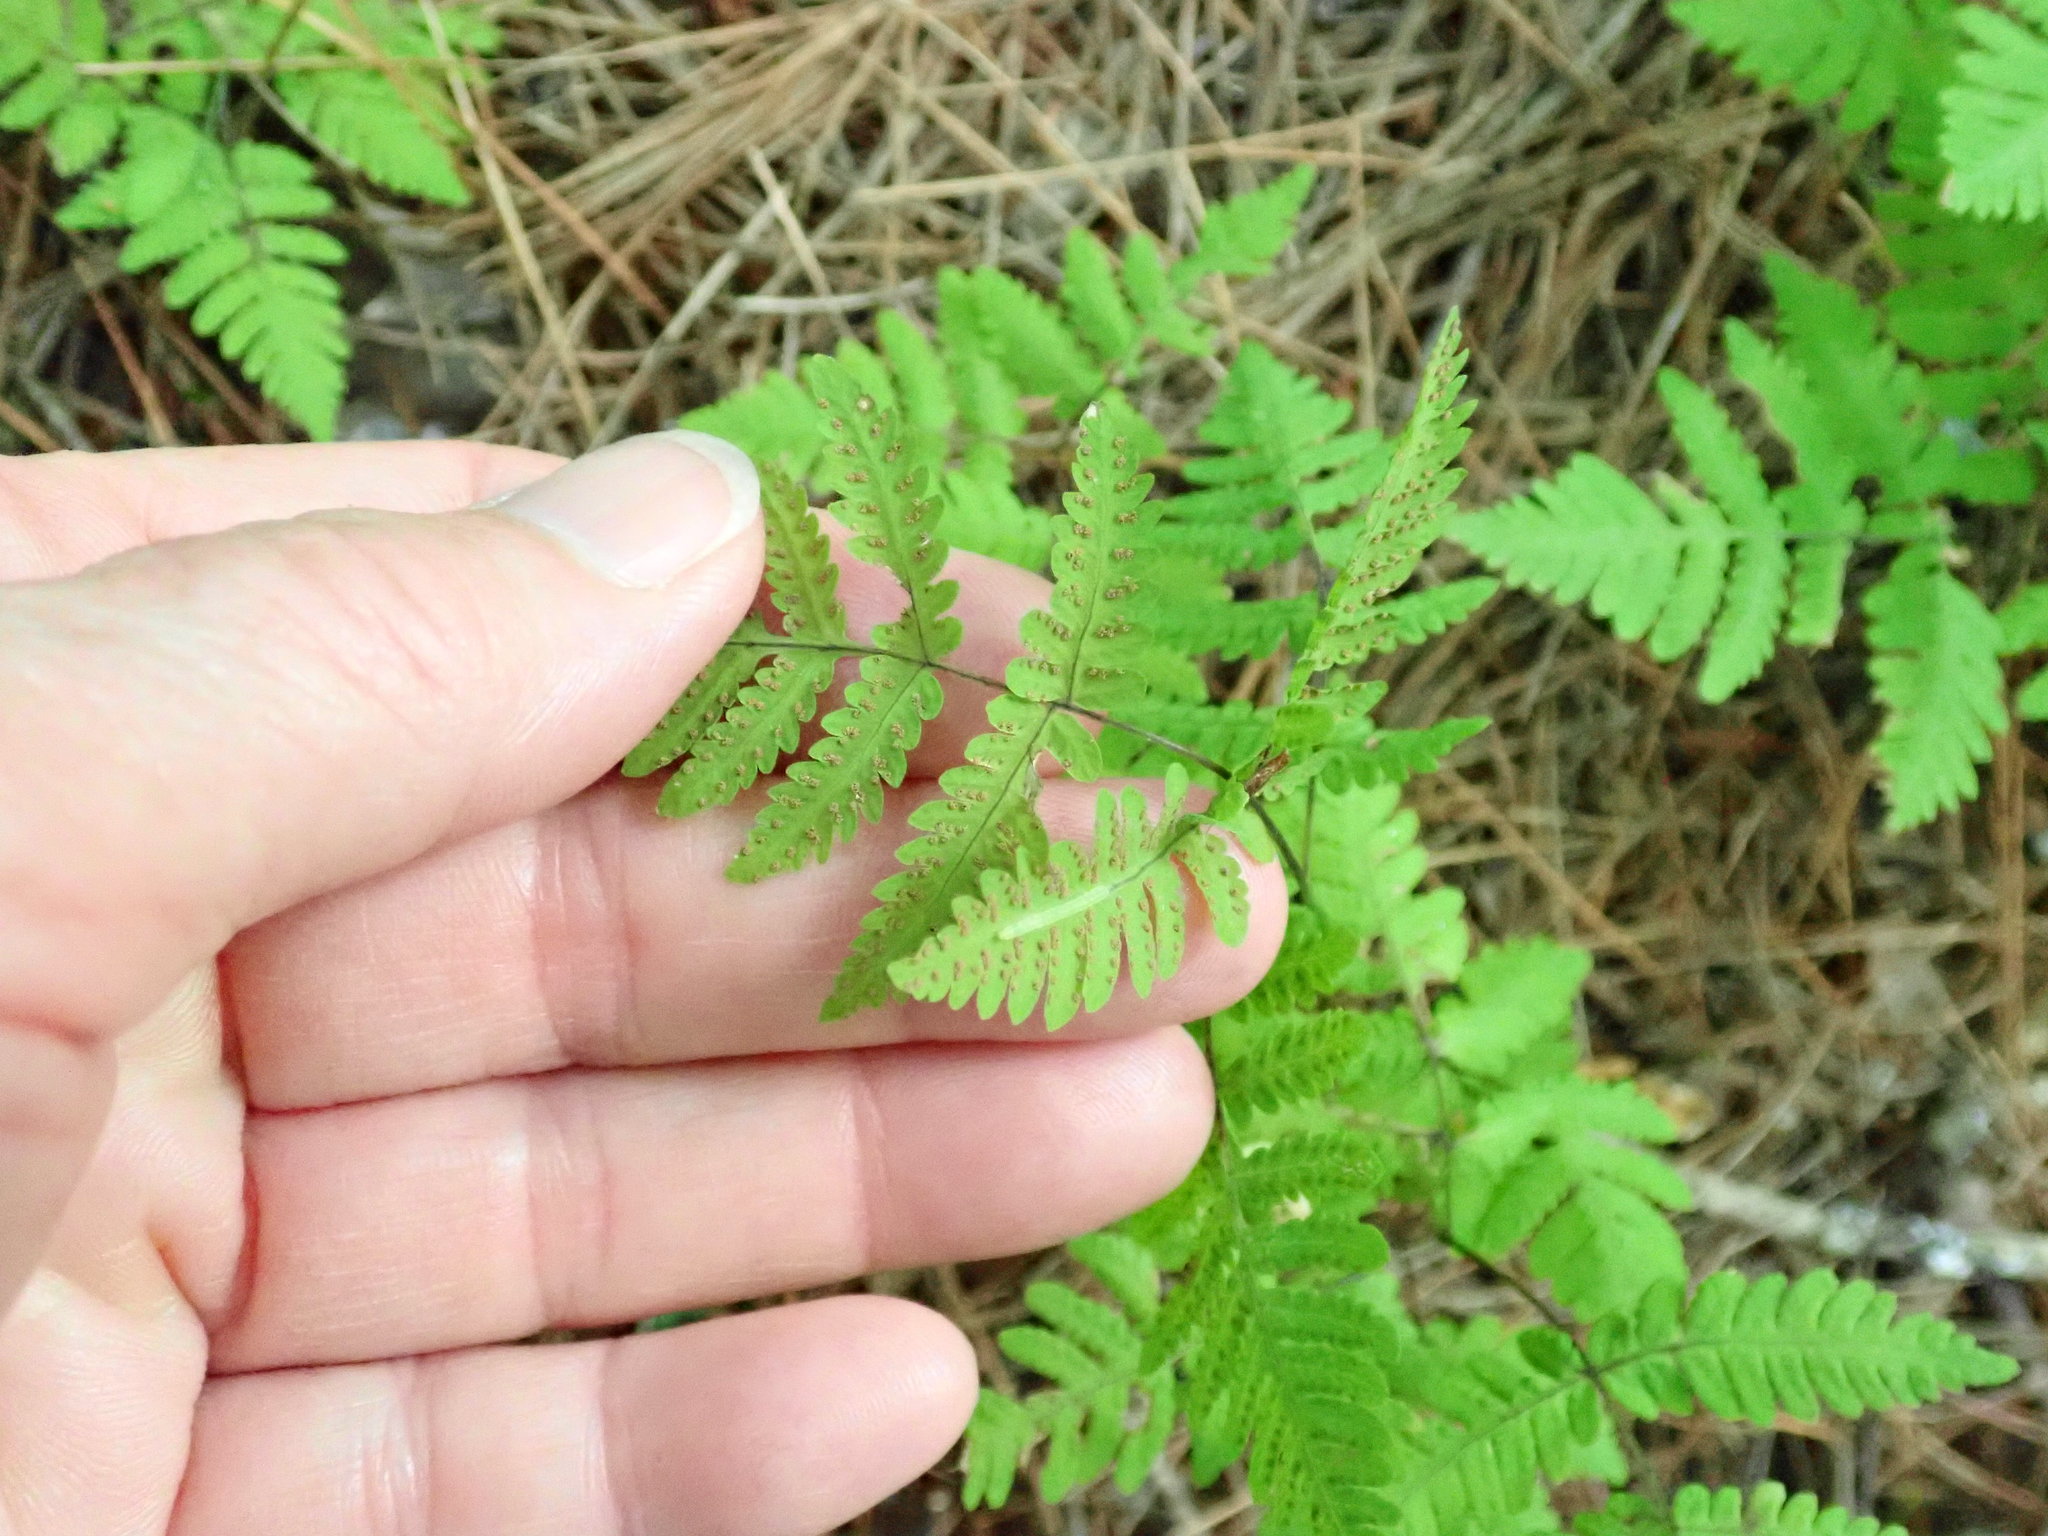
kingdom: Plantae
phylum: Tracheophyta
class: Polypodiopsida
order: Polypodiales
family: Cystopteridaceae
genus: Gymnocarpium
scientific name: Gymnocarpium dryopteris
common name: Oak fern
